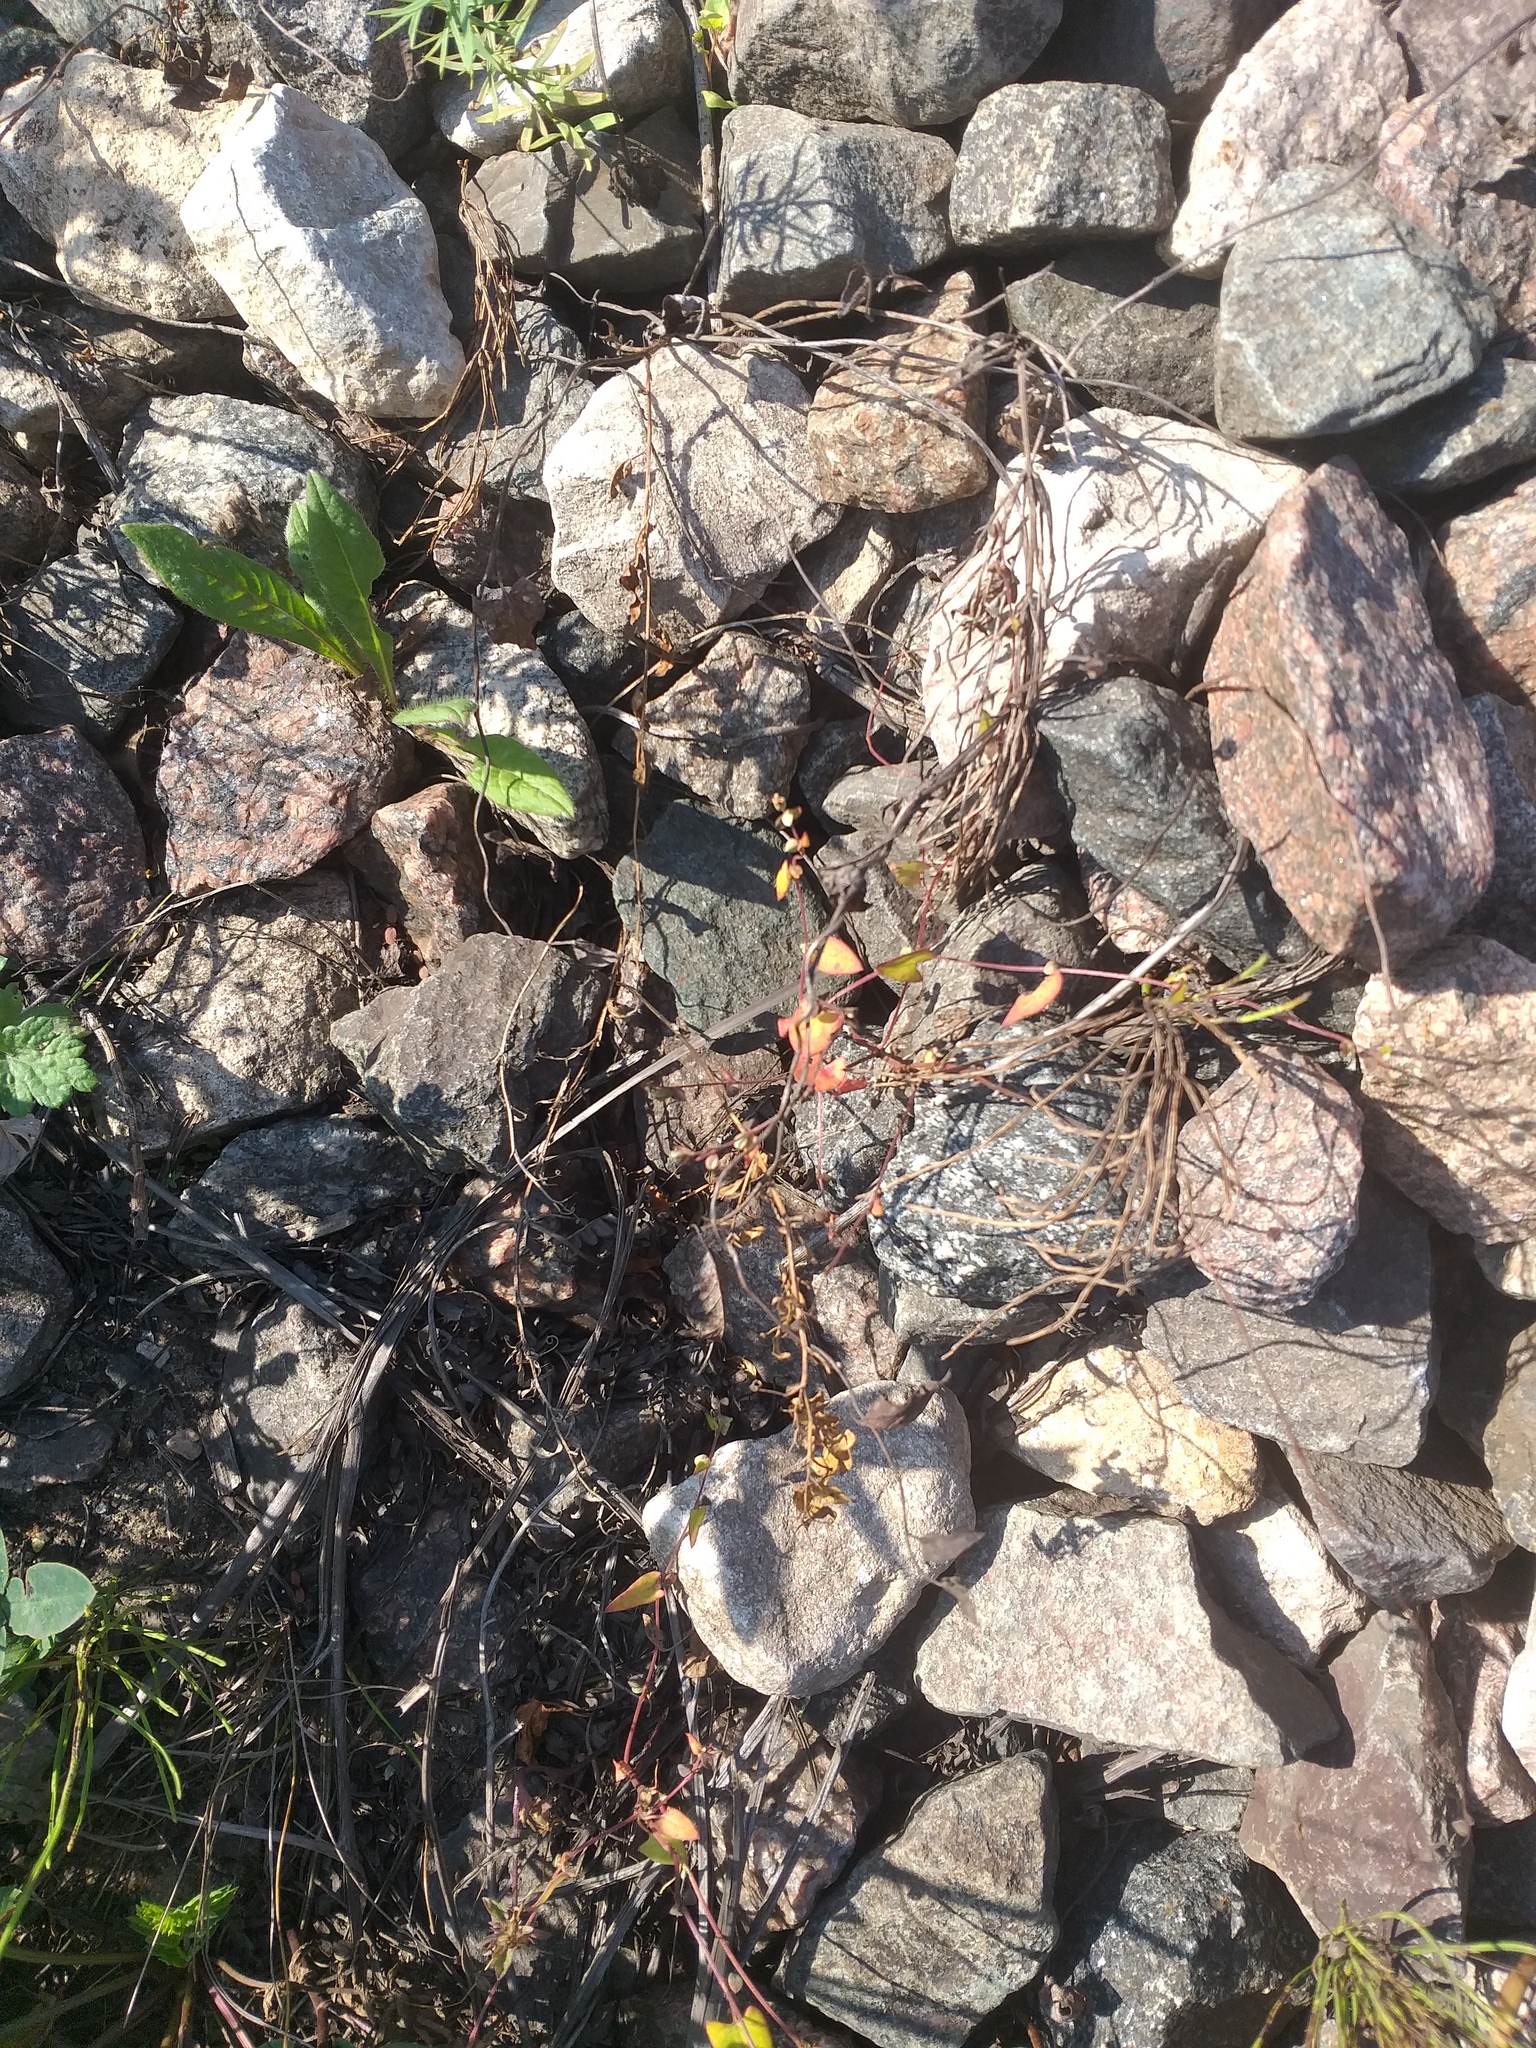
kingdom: Plantae
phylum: Tracheophyta
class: Magnoliopsida
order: Caryophyllales
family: Polygonaceae
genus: Fallopia
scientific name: Fallopia convolvulus
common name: Black bindweed
